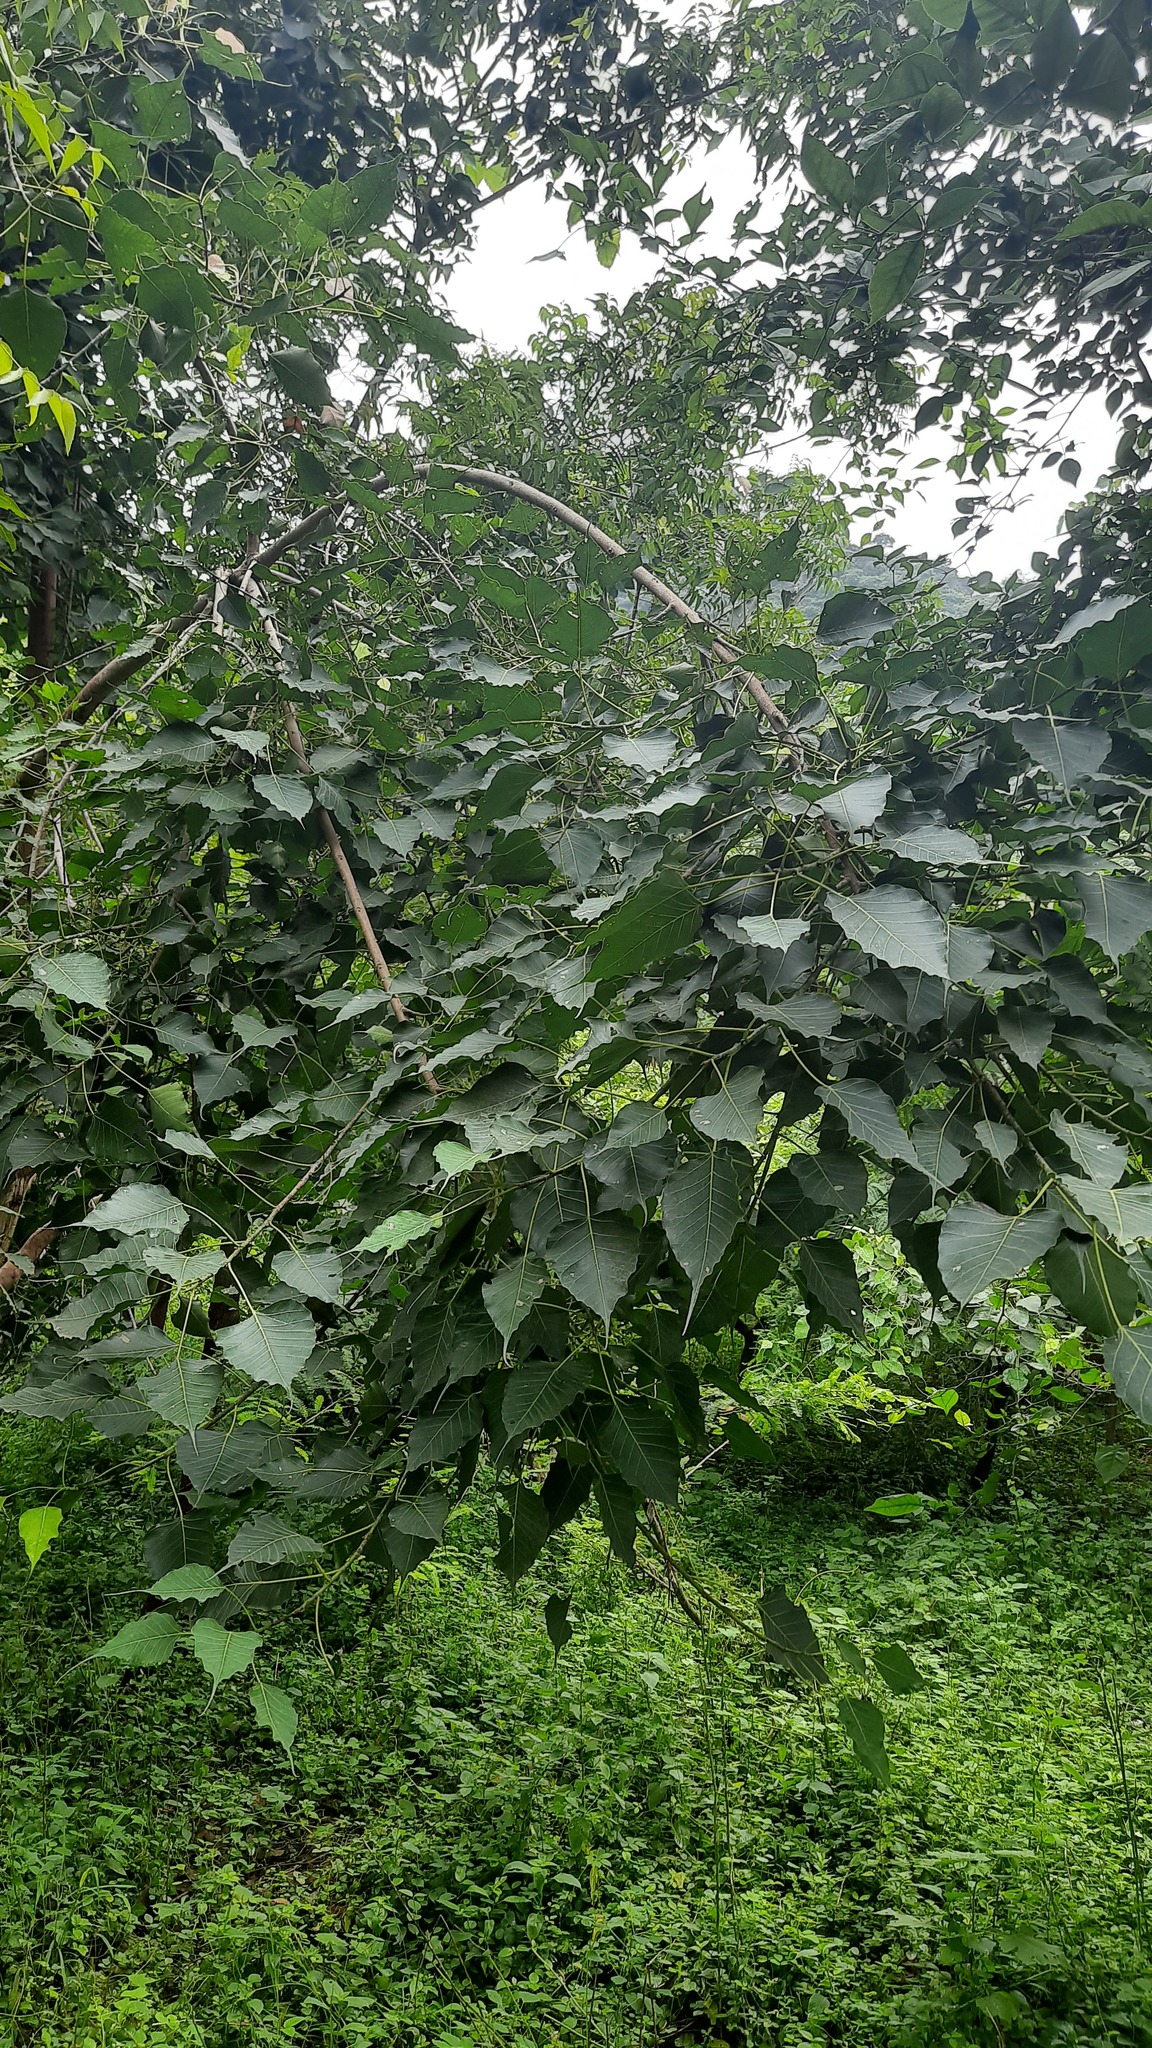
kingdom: Plantae
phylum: Tracheophyta
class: Magnoliopsida
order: Rosales
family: Moraceae
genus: Ficus
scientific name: Ficus religiosa
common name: Bodhi tree
